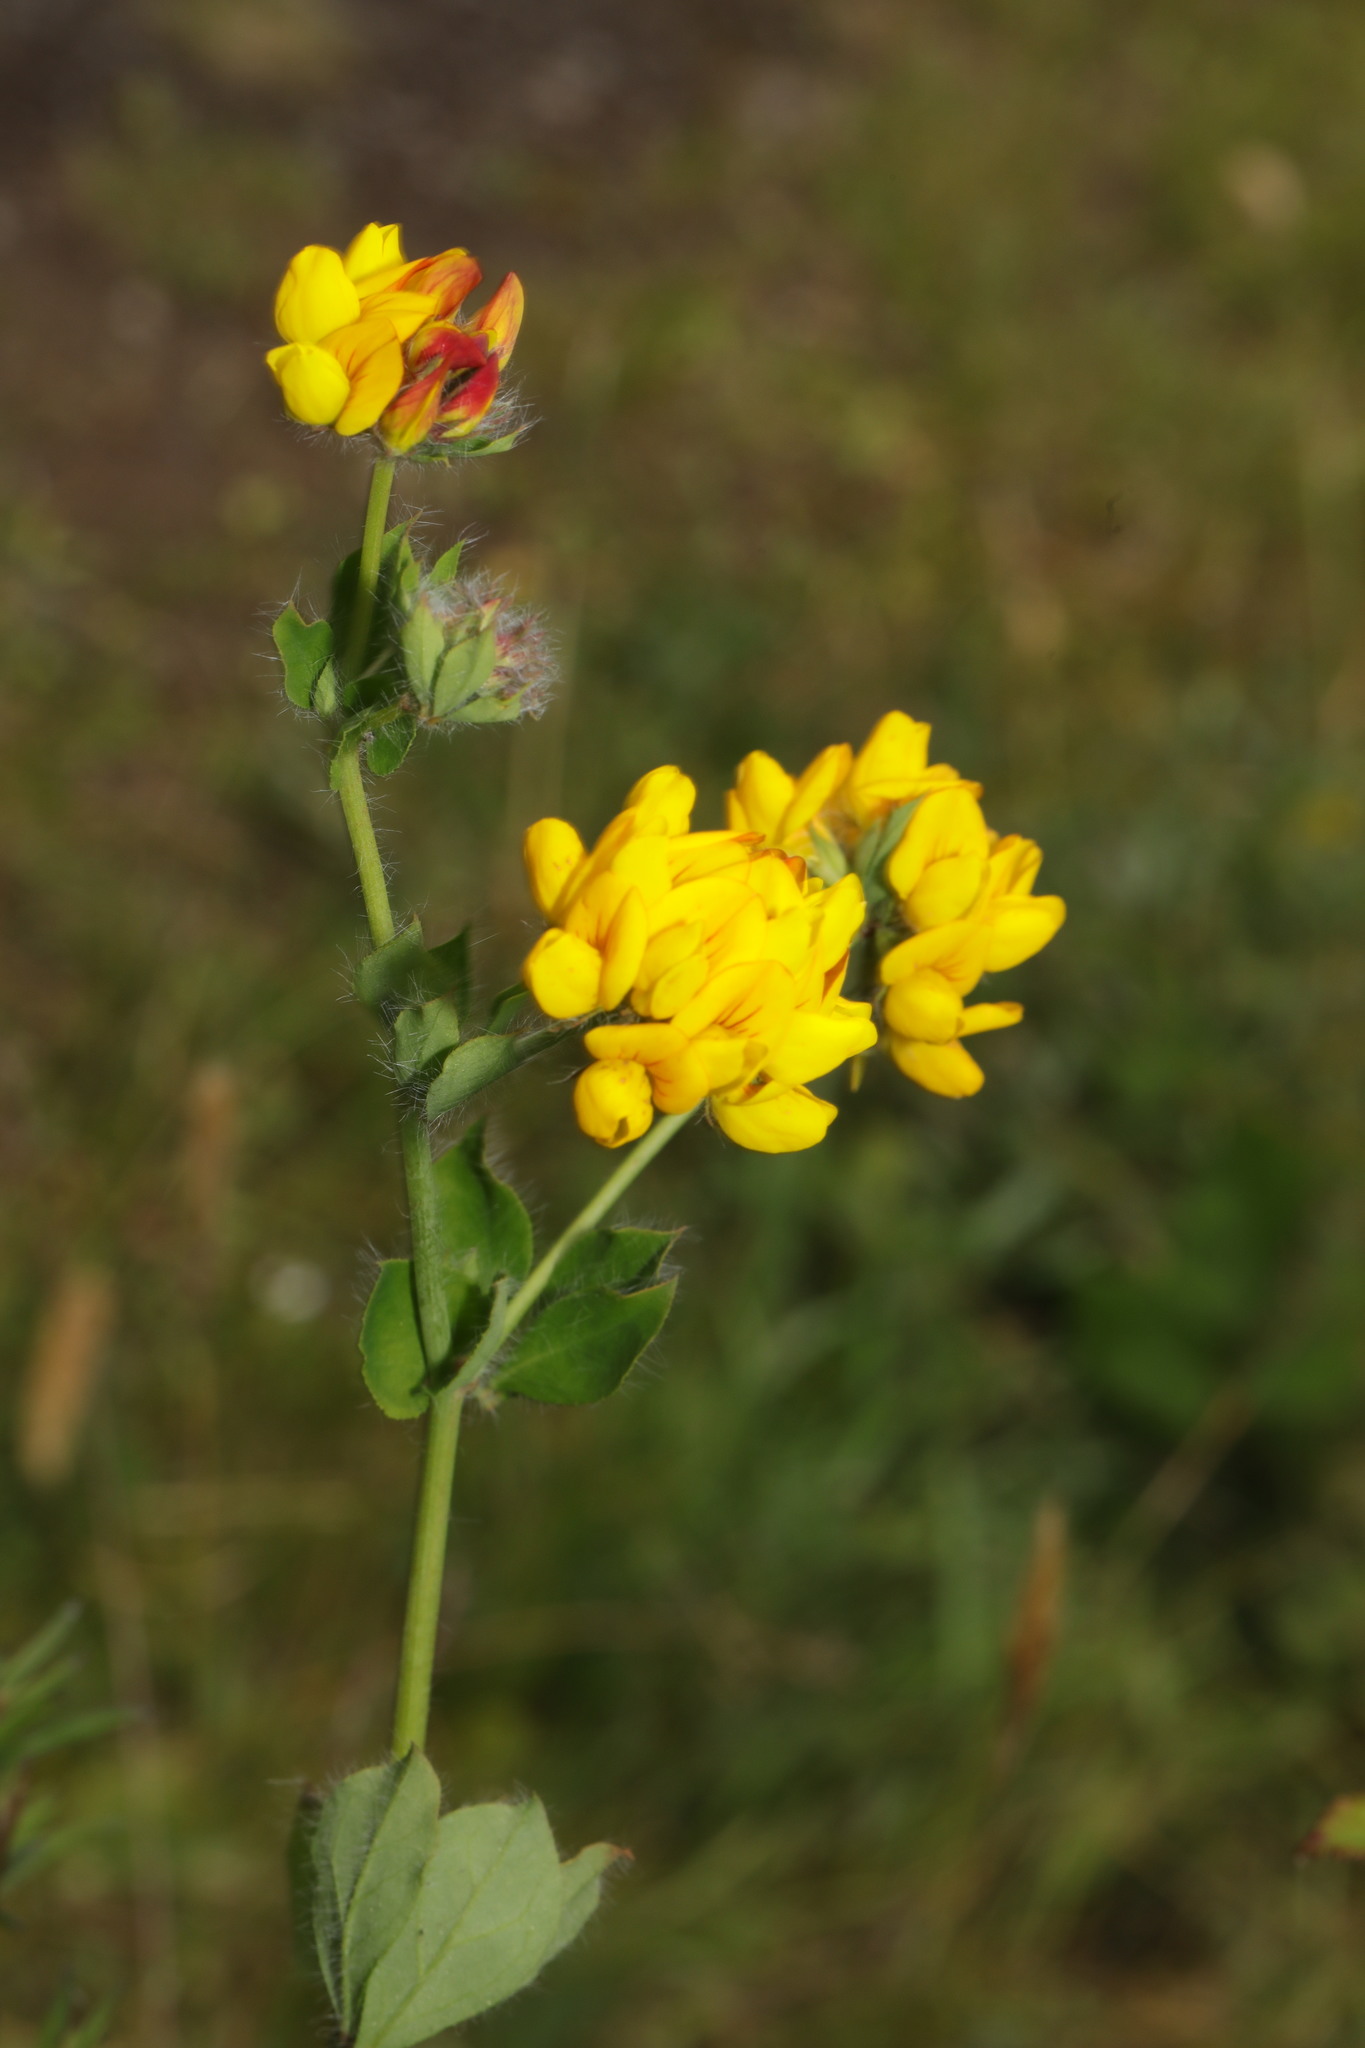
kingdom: Plantae
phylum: Tracheophyta
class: Magnoliopsida
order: Fabales
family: Fabaceae
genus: Lotus
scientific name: Lotus pedunculatus
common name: Greater birdsfoot-trefoil
